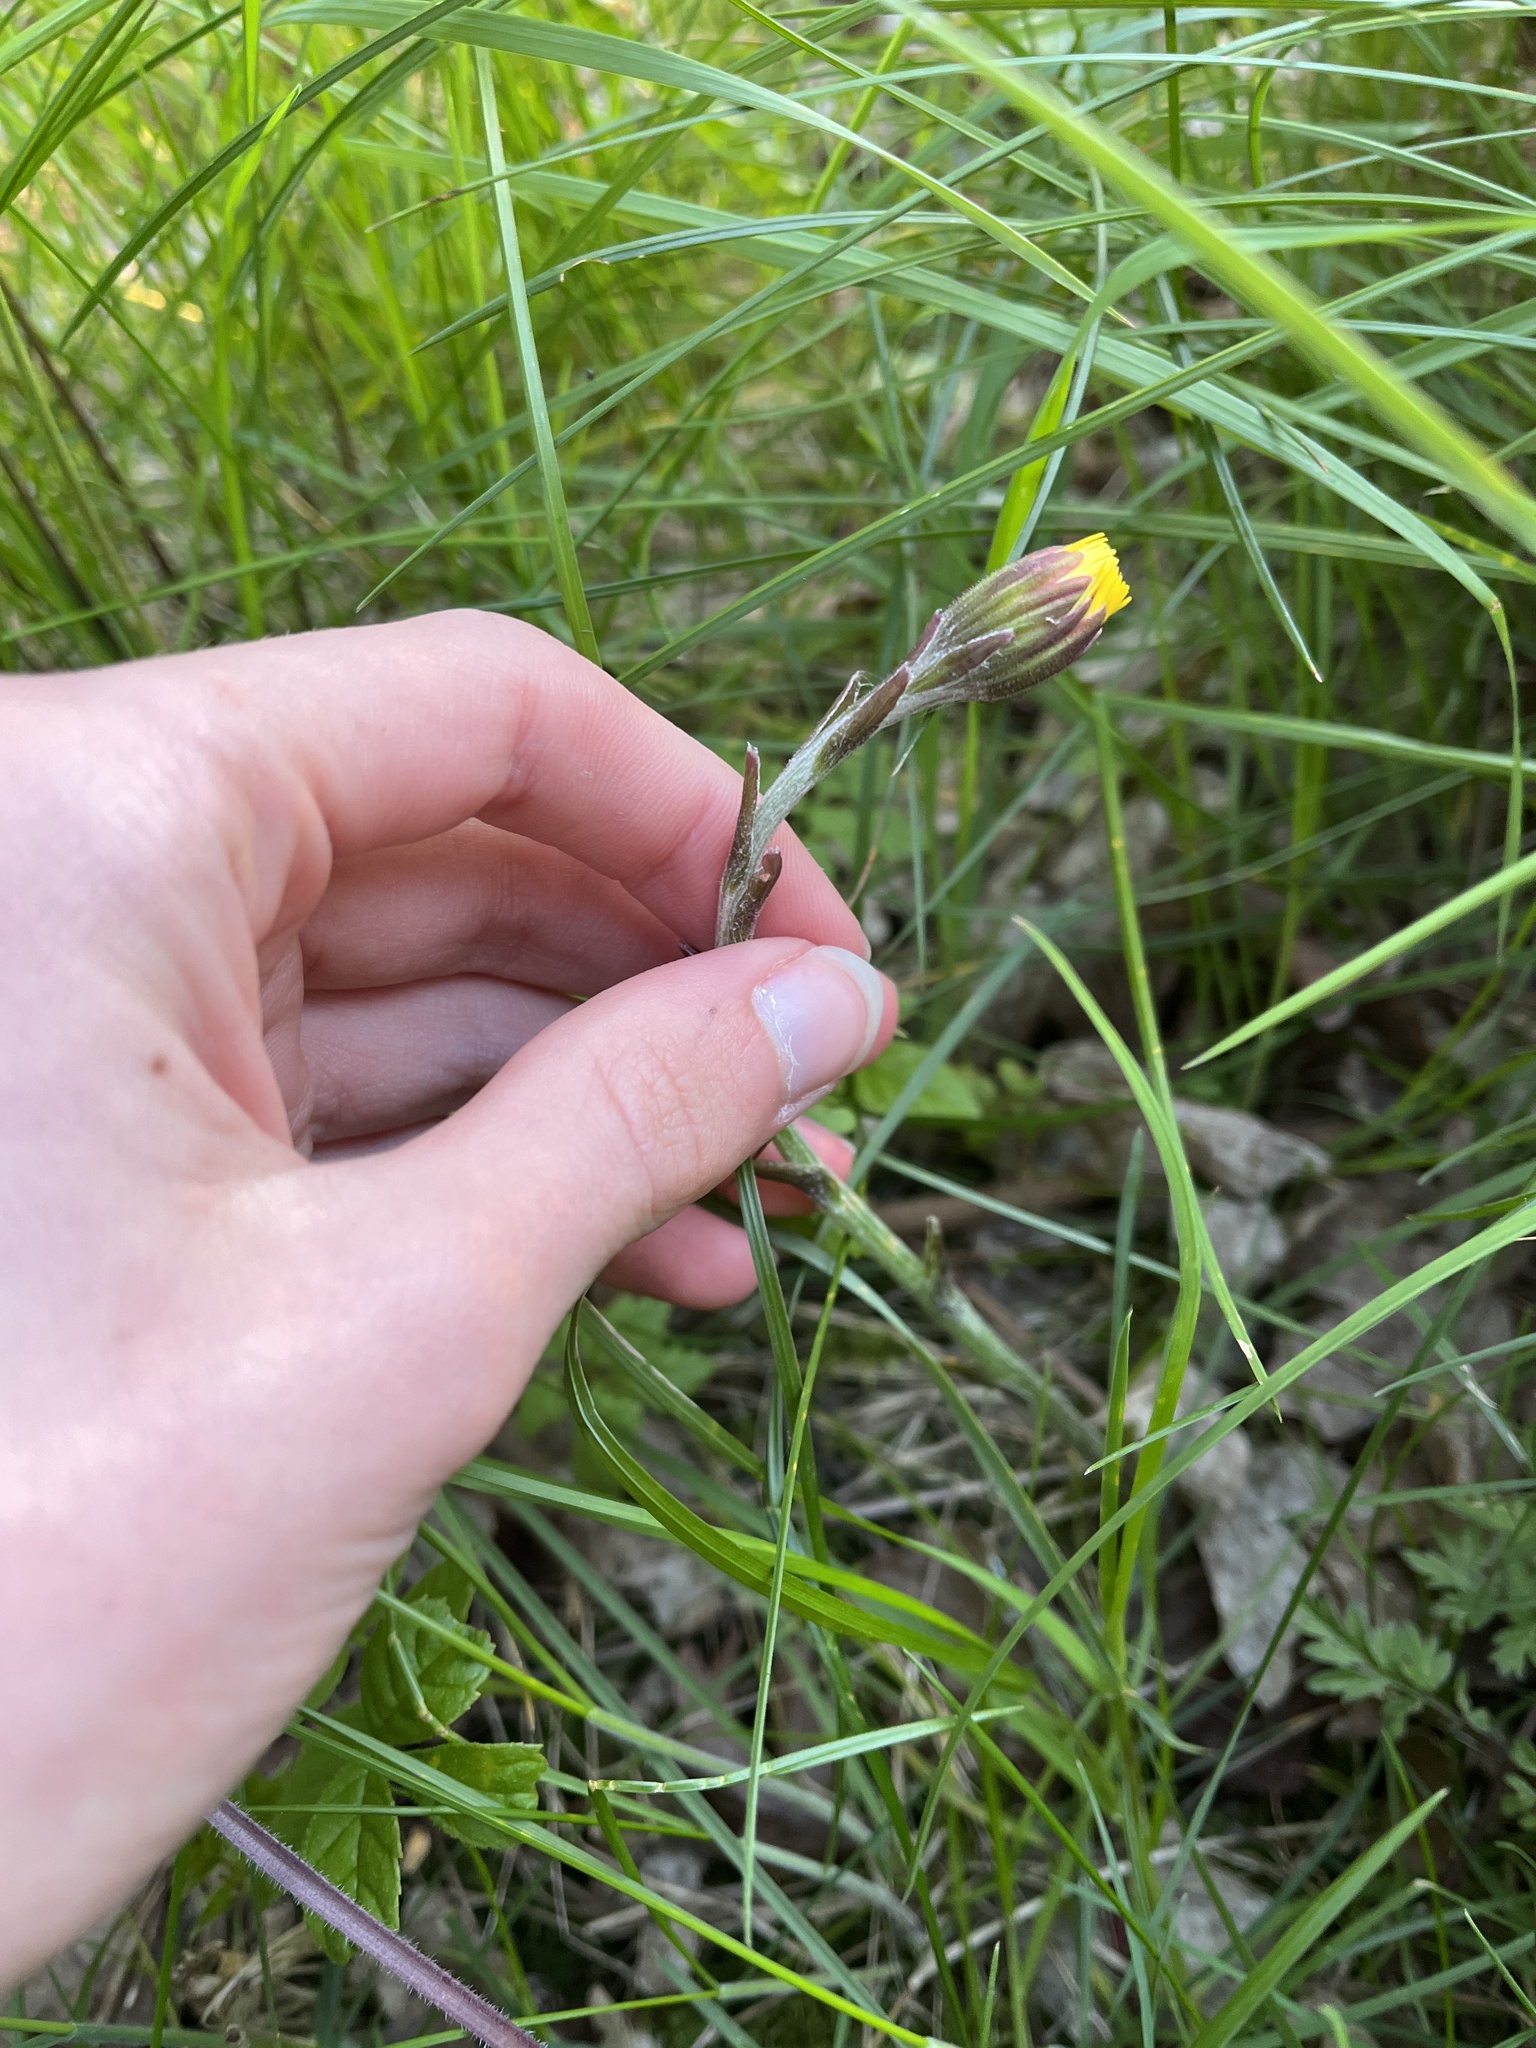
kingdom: Plantae
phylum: Tracheophyta
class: Magnoliopsida
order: Asterales
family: Asteraceae
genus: Tussilago
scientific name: Tussilago farfara
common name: Coltsfoot
